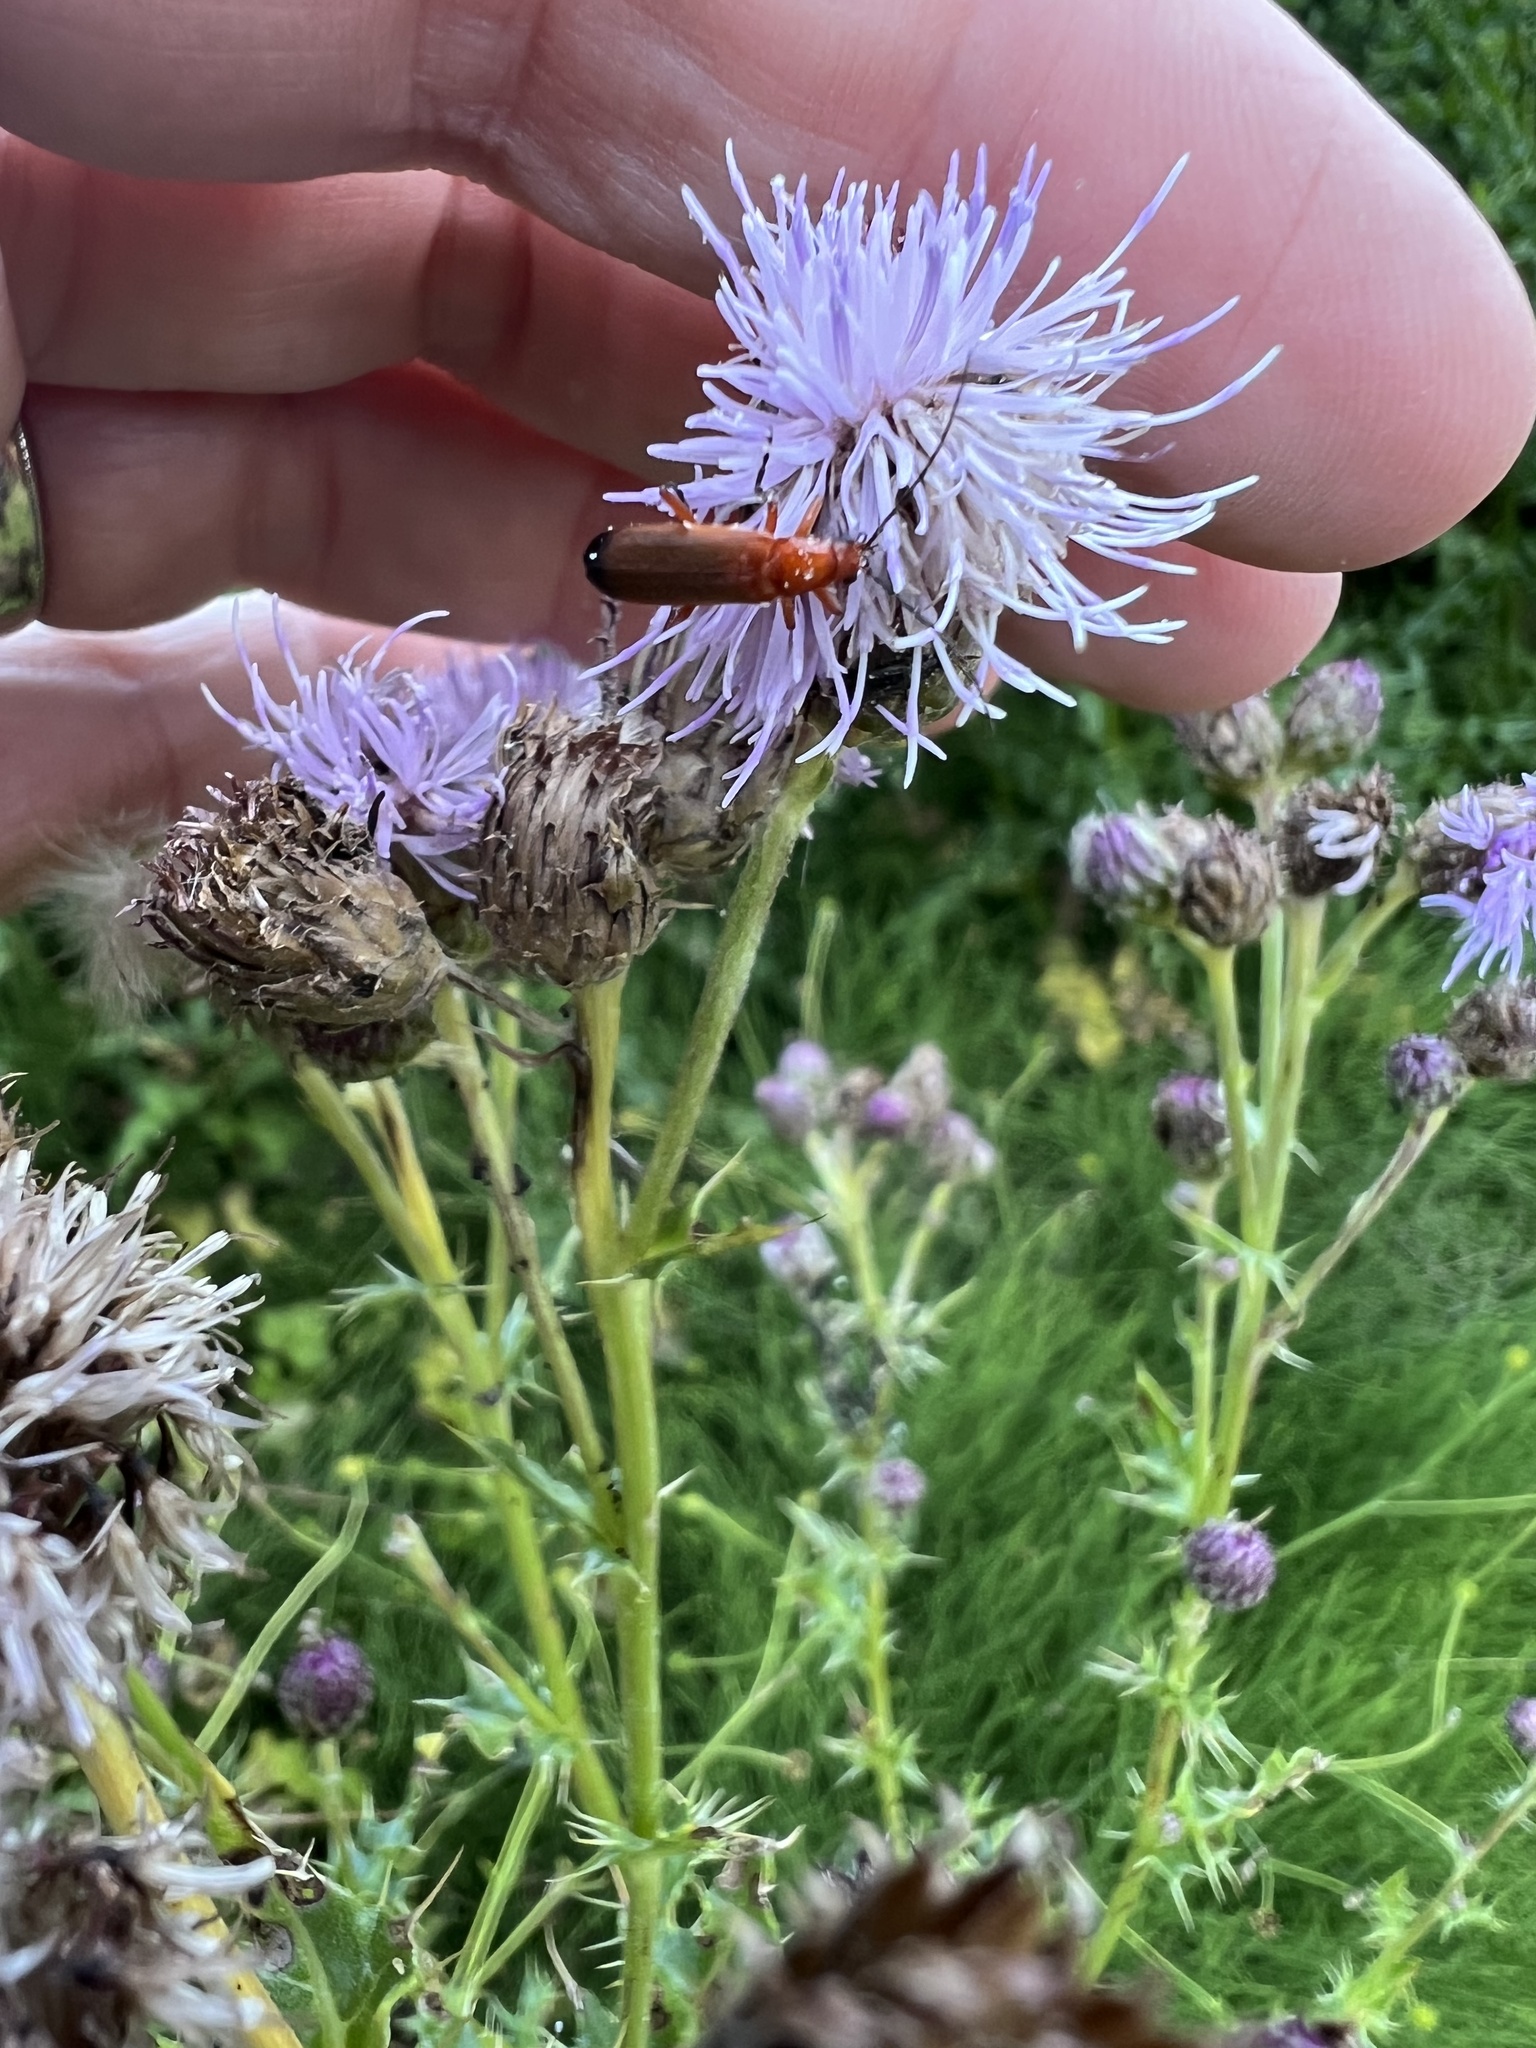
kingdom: Animalia
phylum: Arthropoda
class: Insecta
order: Coleoptera
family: Cantharidae
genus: Rhagonycha
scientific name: Rhagonycha fulva
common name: Common red soldier beetle
